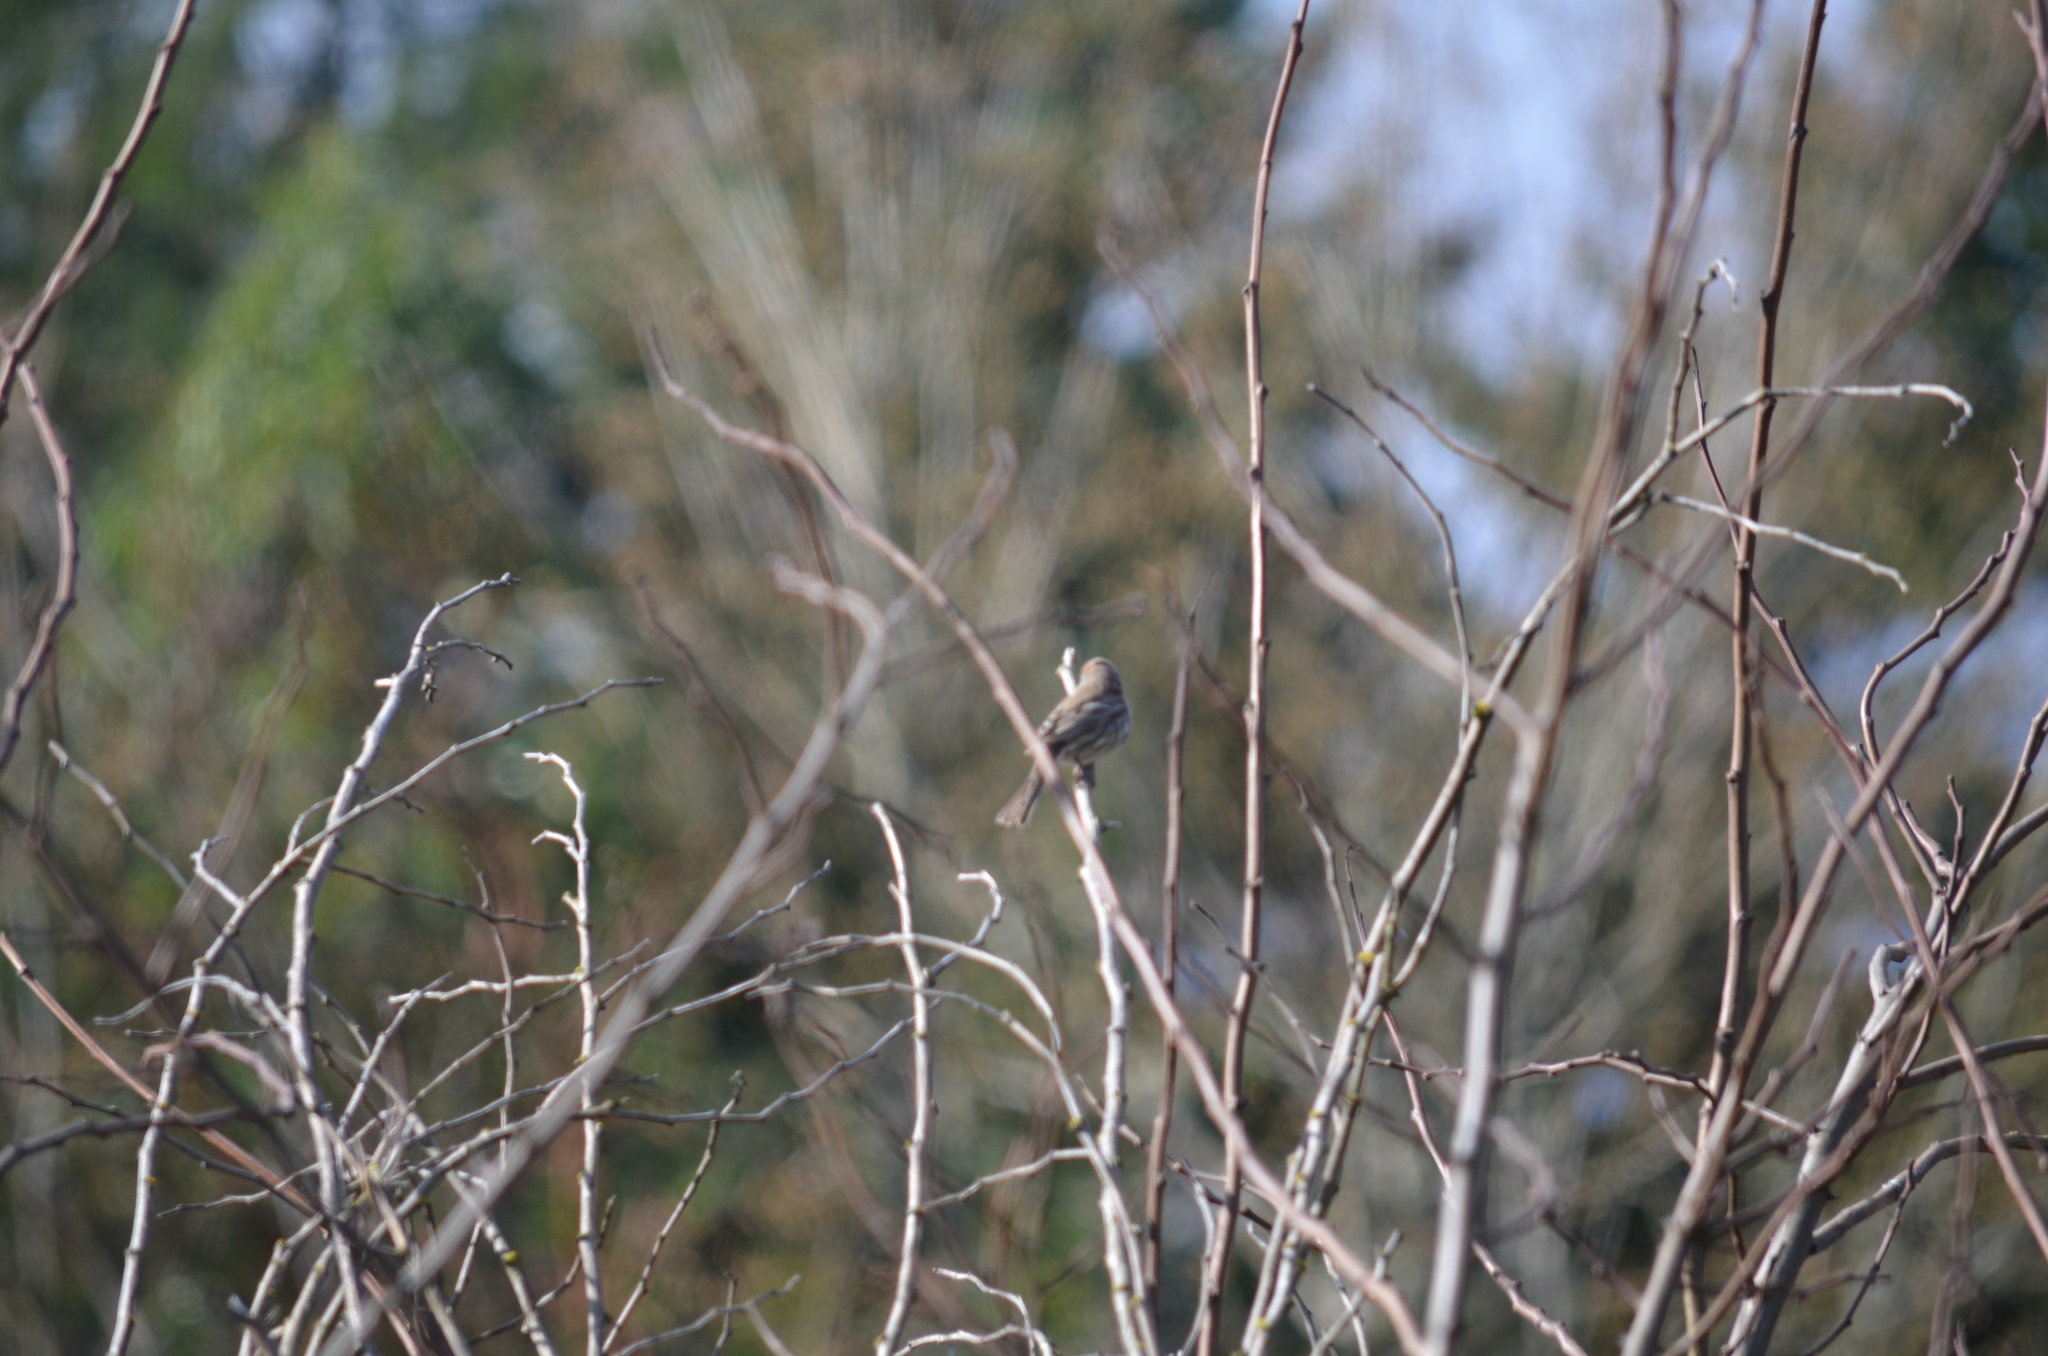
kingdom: Animalia
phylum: Chordata
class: Aves
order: Passeriformes
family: Fringillidae
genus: Haemorhous
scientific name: Haemorhous mexicanus
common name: House finch
